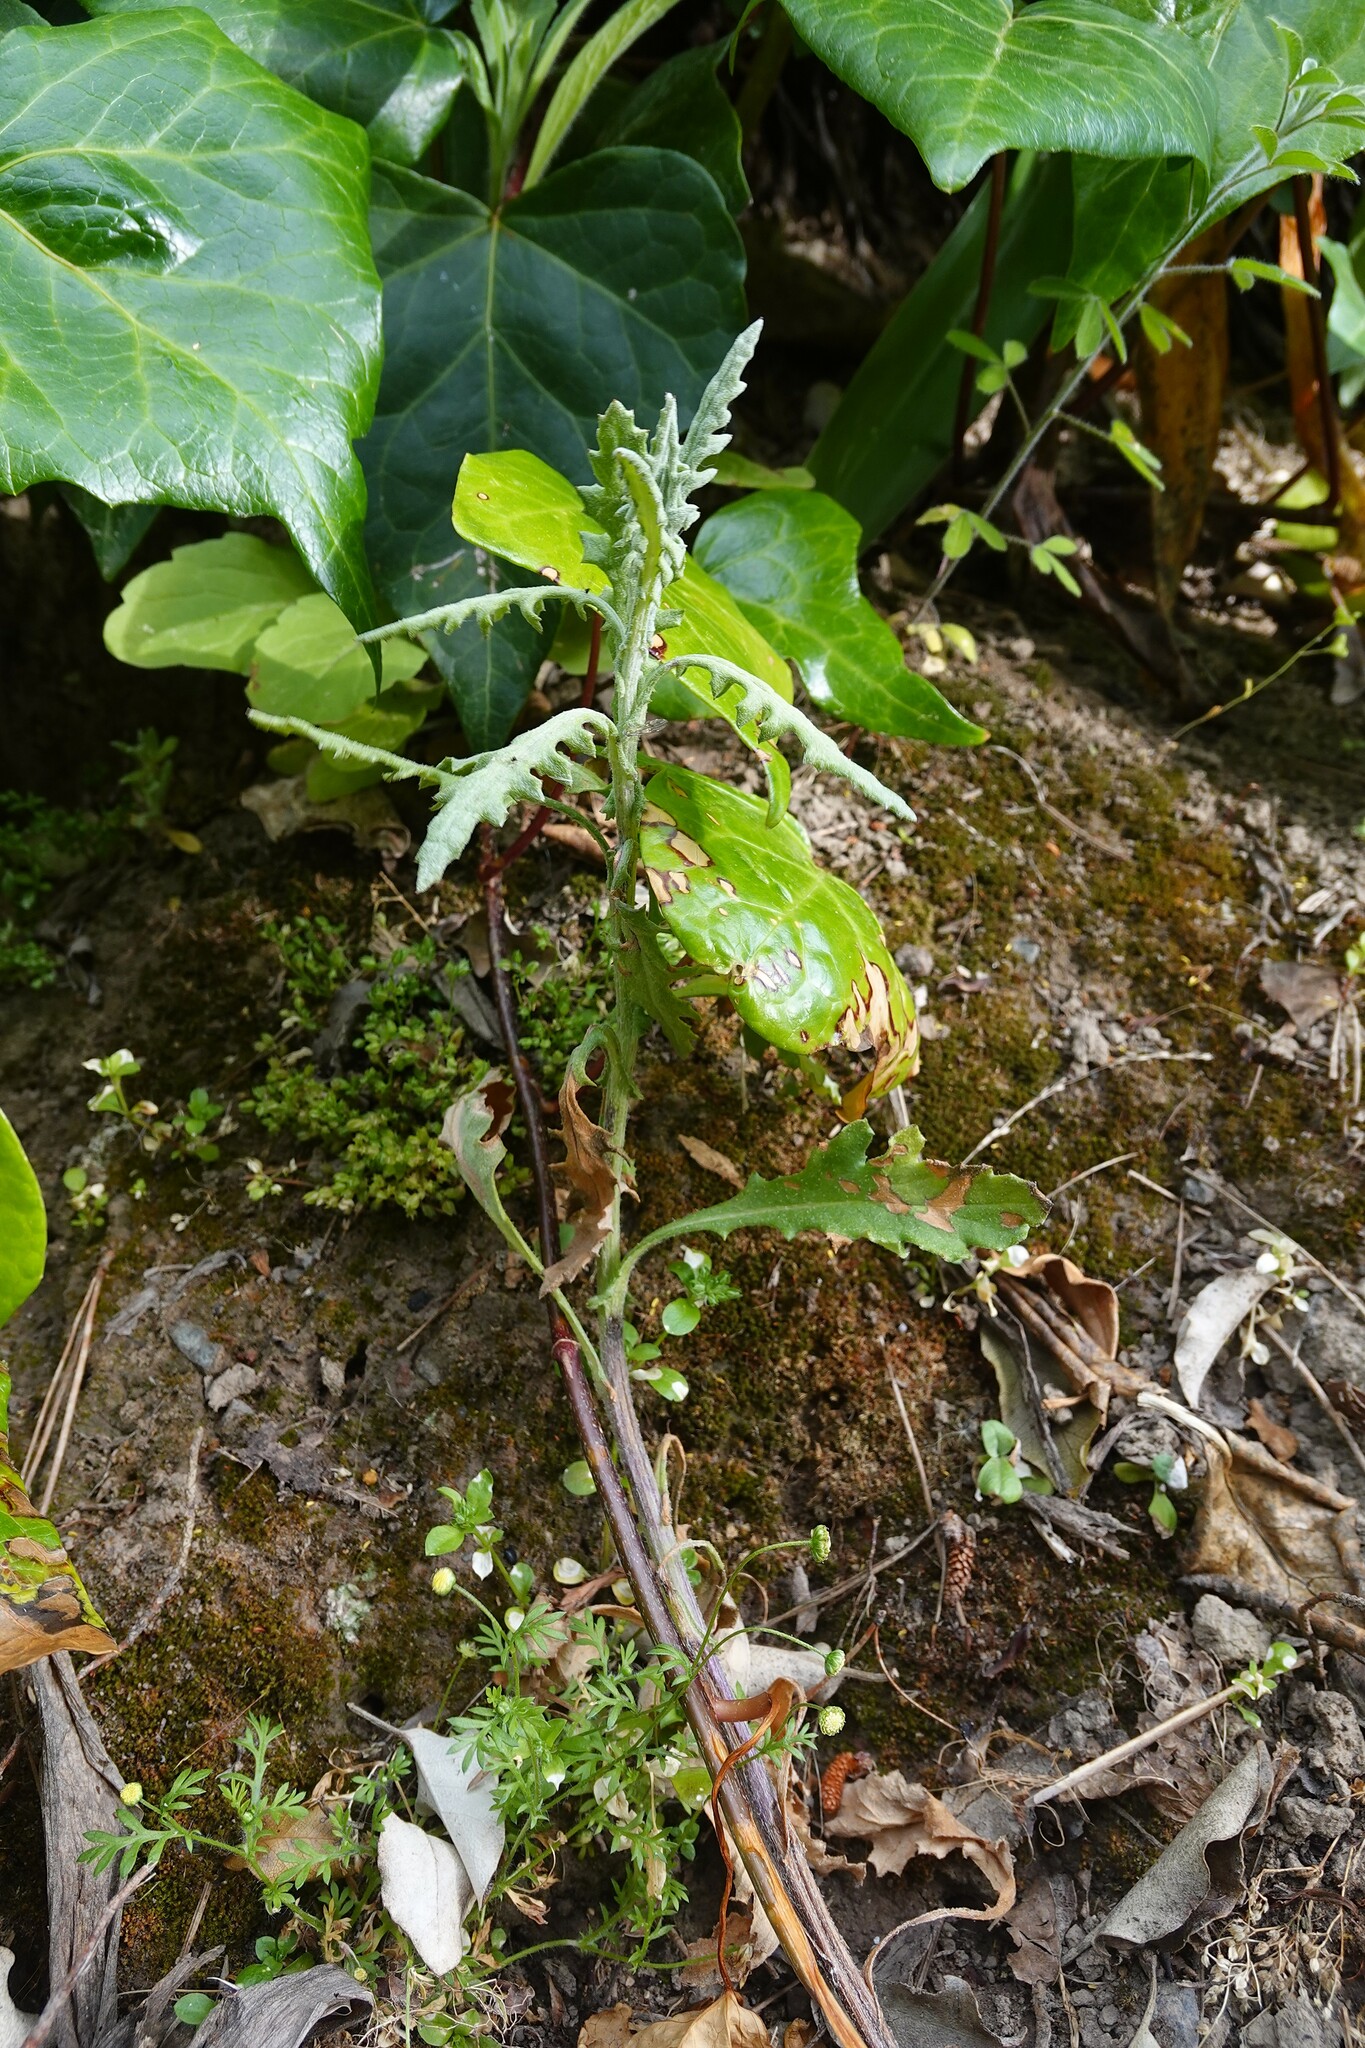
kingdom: Plantae
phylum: Tracheophyta
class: Magnoliopsida
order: Asterales
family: Asteraceae
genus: Senecio
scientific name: Senecio glomeratus
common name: Cutleaf burnweed
